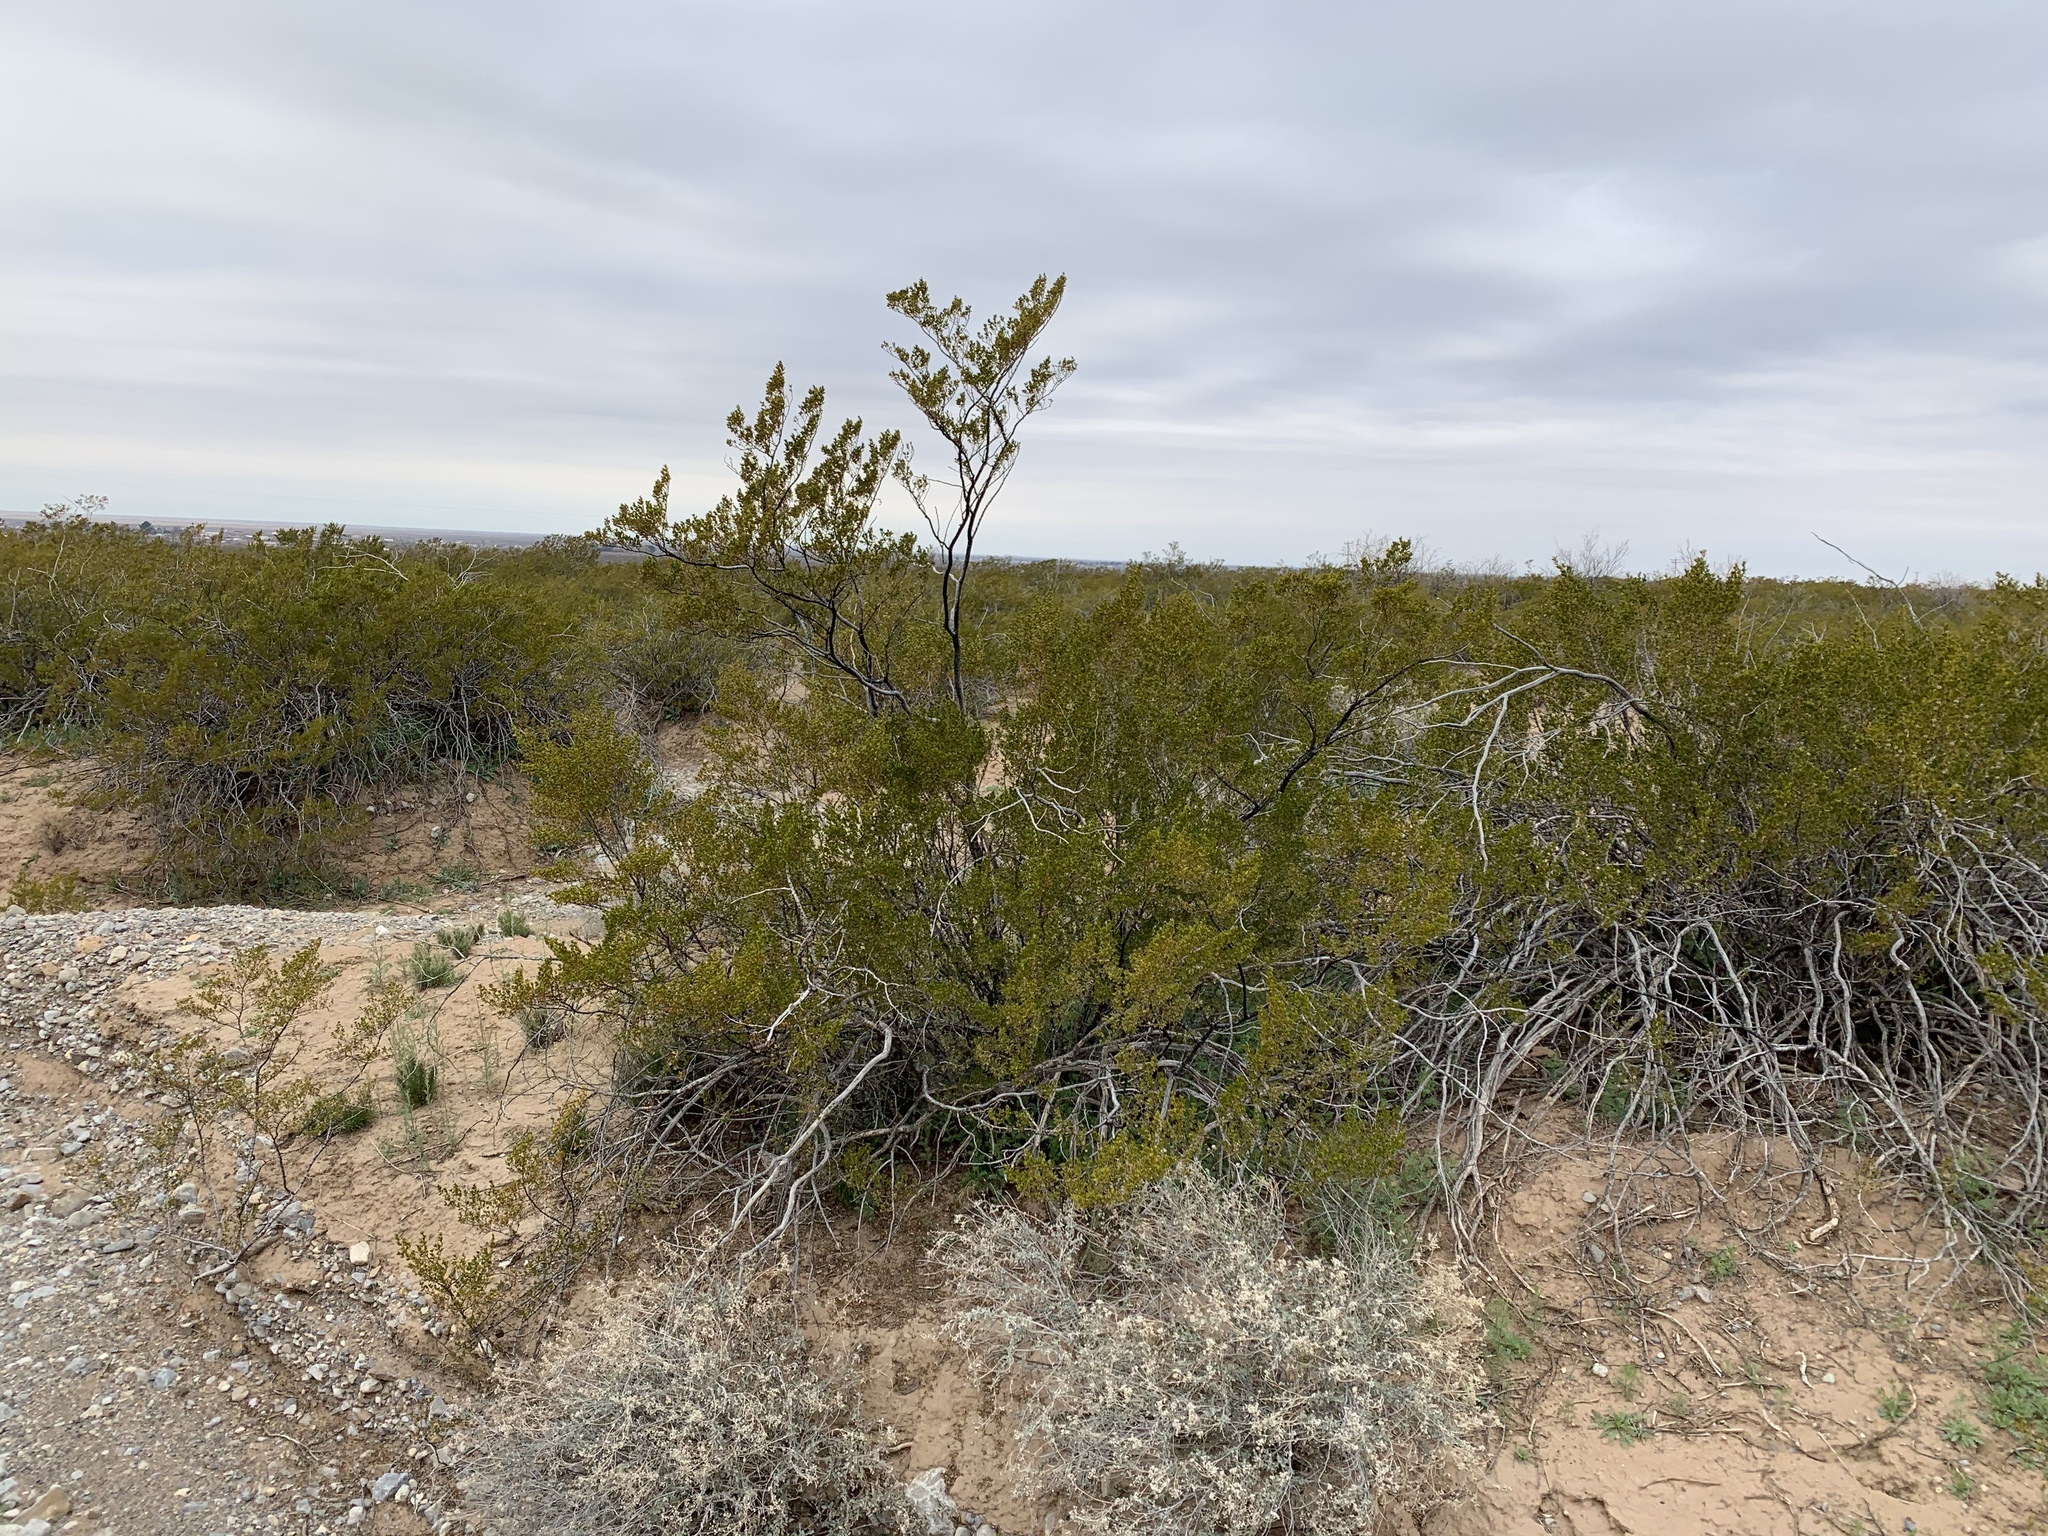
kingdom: Plantae
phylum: Tracheophyta
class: Magnoliopsida
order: Zygophyllales
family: Zygophyllaceae
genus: Larrea
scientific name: Larrea tridentata
